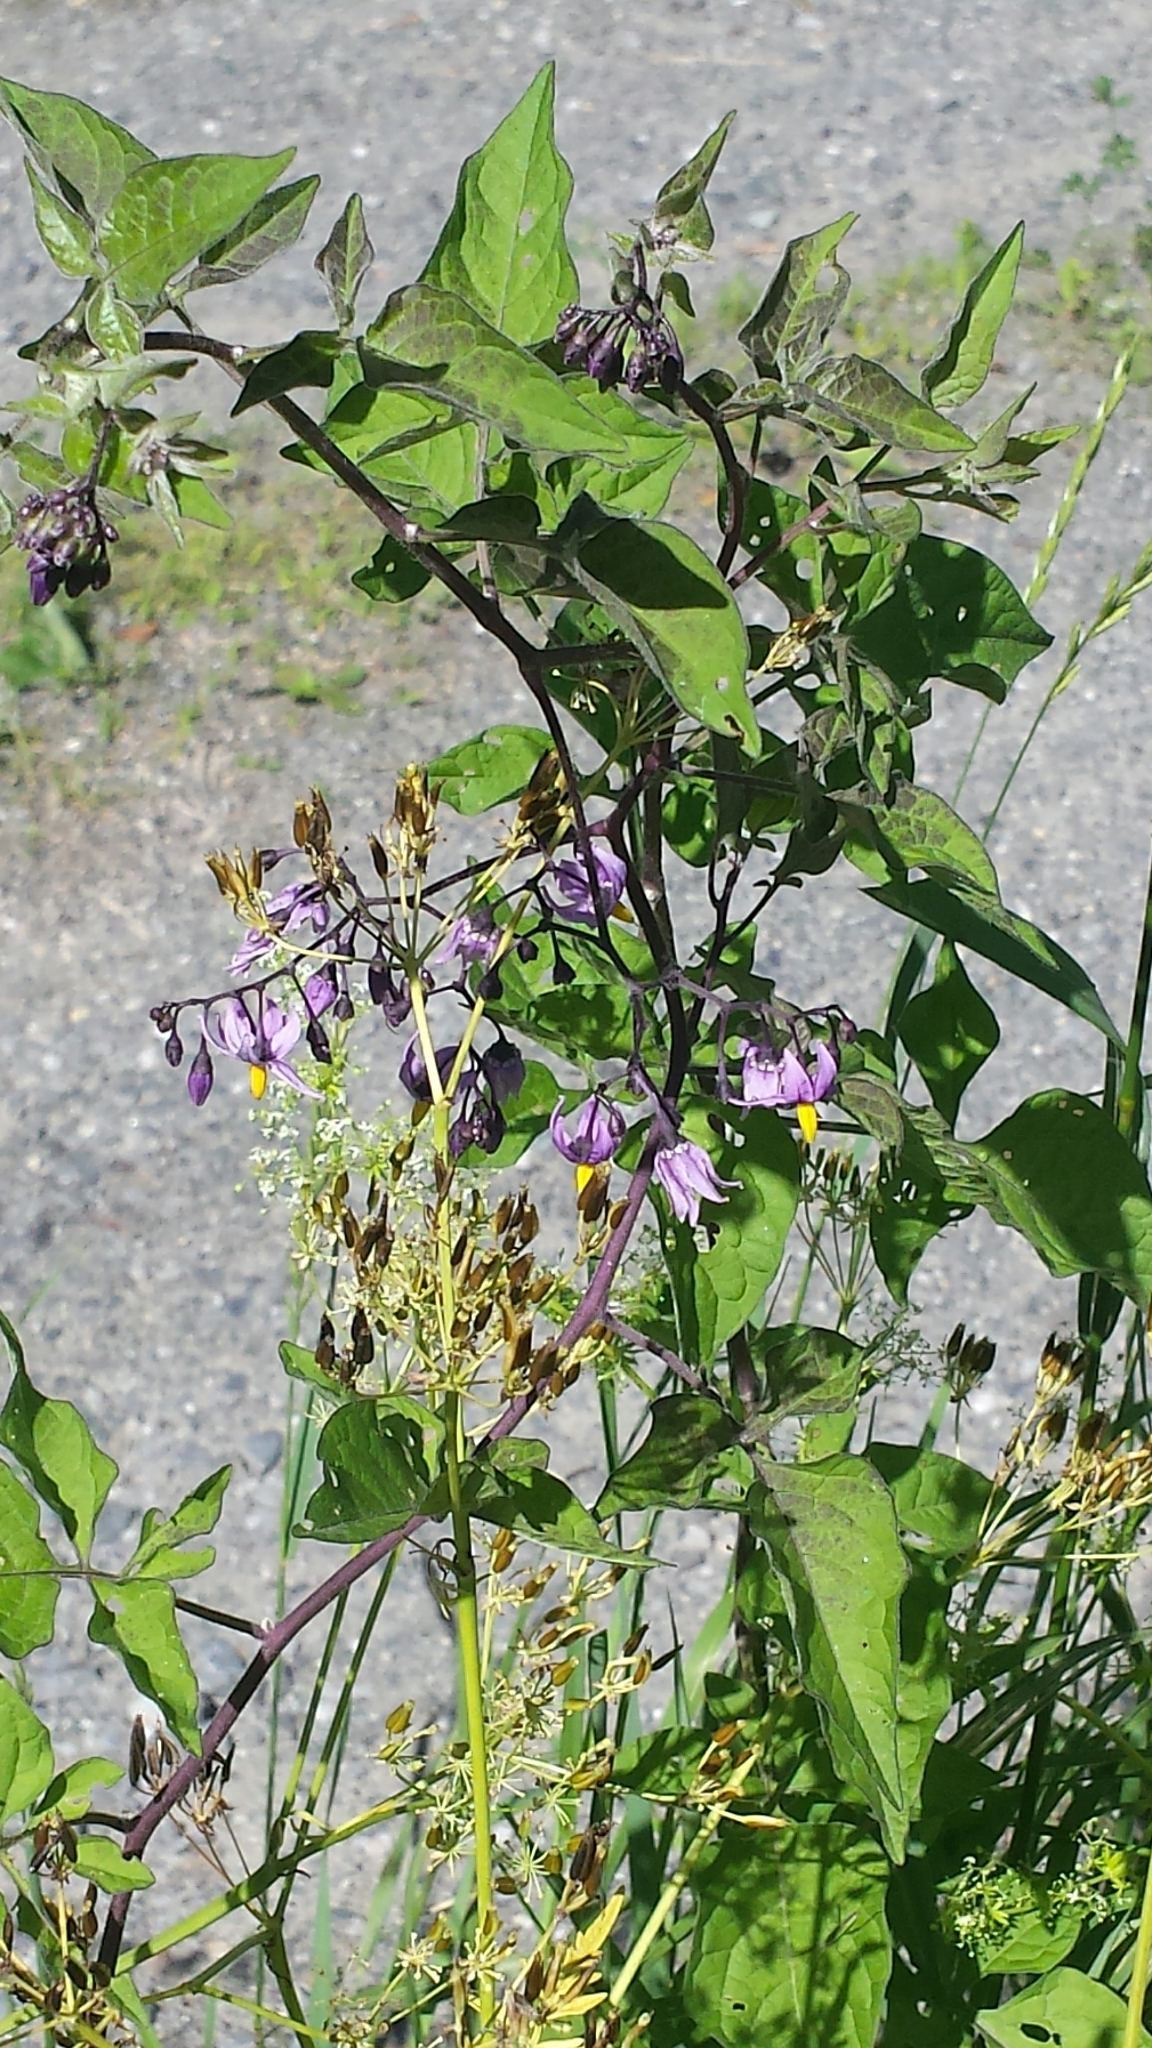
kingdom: Plantae
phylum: Tracheophyta
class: Magnoliopsida
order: Solanales
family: Solanaceae
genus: Solanum
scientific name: Solanum dulcamara
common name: Climbing nightshade
